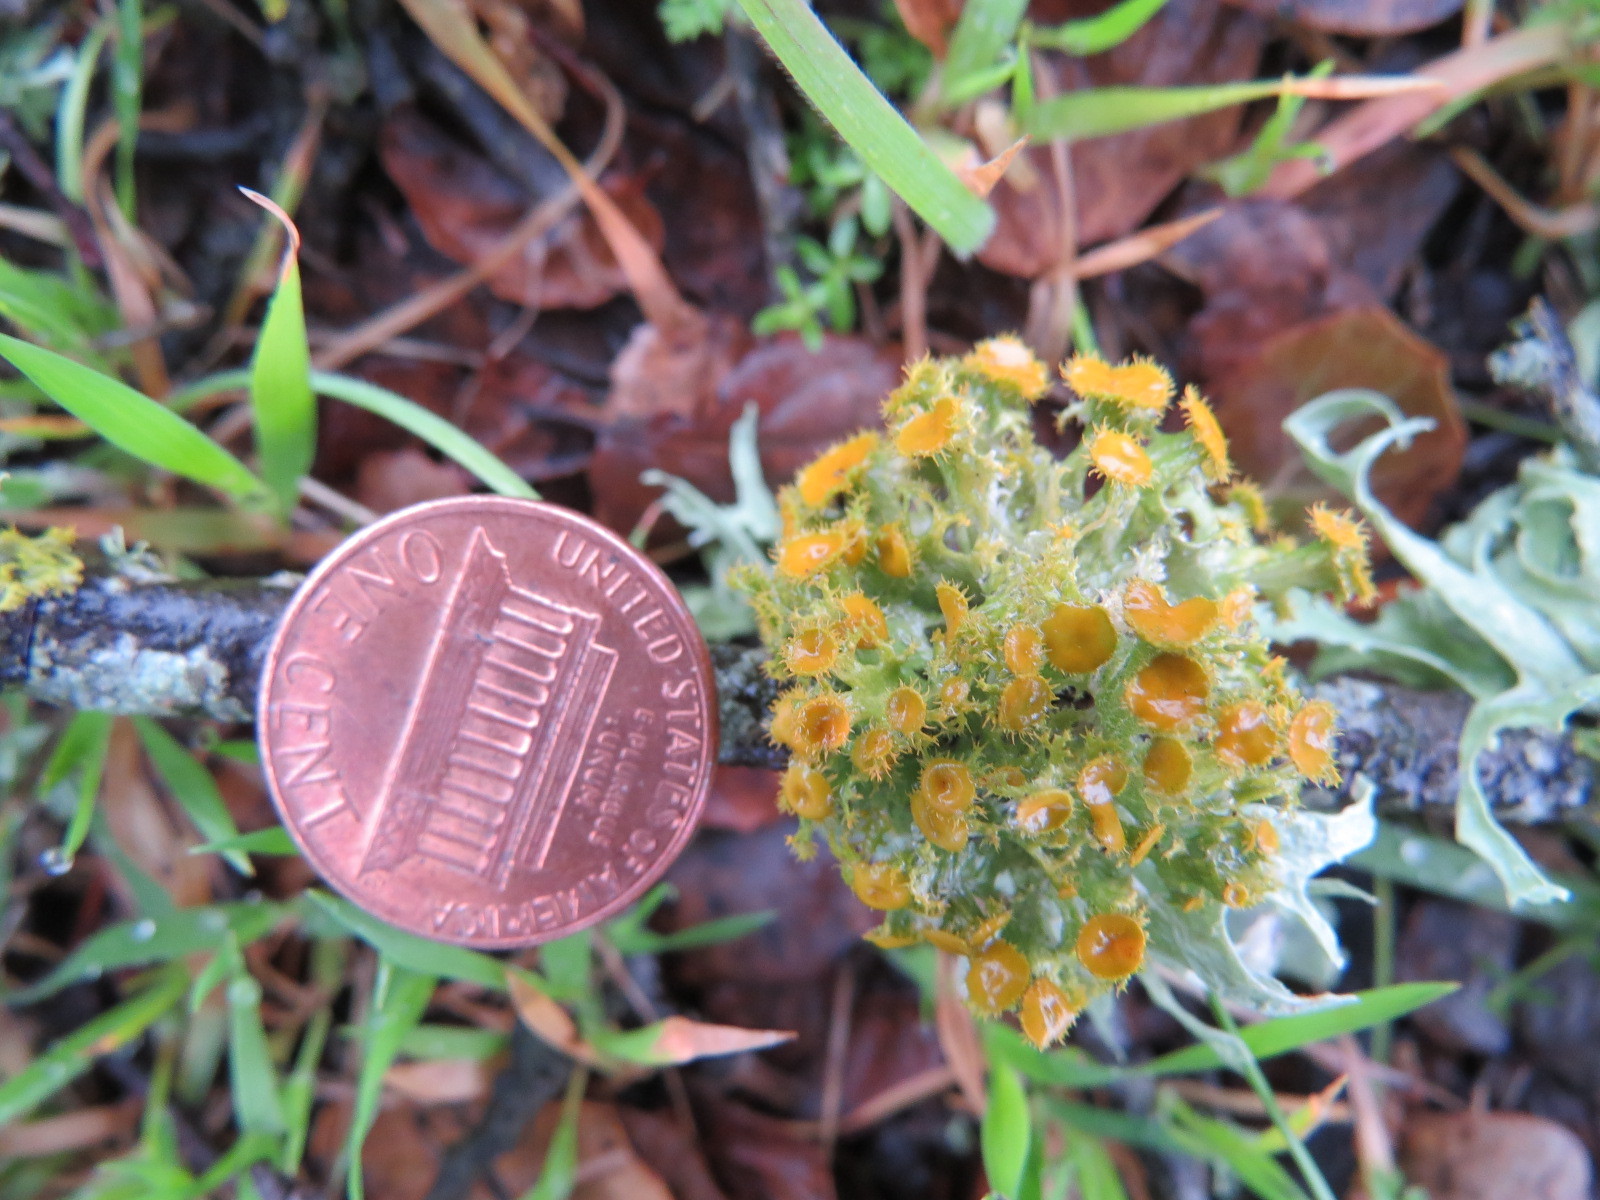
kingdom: Fungi
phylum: Ascomycota
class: Lecanoromycetes
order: Teloschistales
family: Teloschistaceae
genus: Niorma
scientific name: Niorma chrysophthalma
